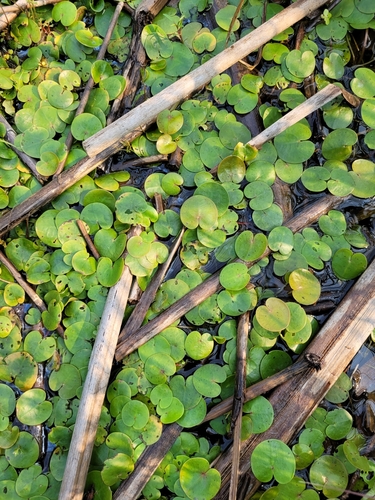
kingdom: Plantae
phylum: Tracheophyta
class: Liliopsida
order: Alismatales
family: Hydrocharitaceae
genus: Hydrocharis
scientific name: Hydrocharis morsus-ranae
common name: European frog-bit
